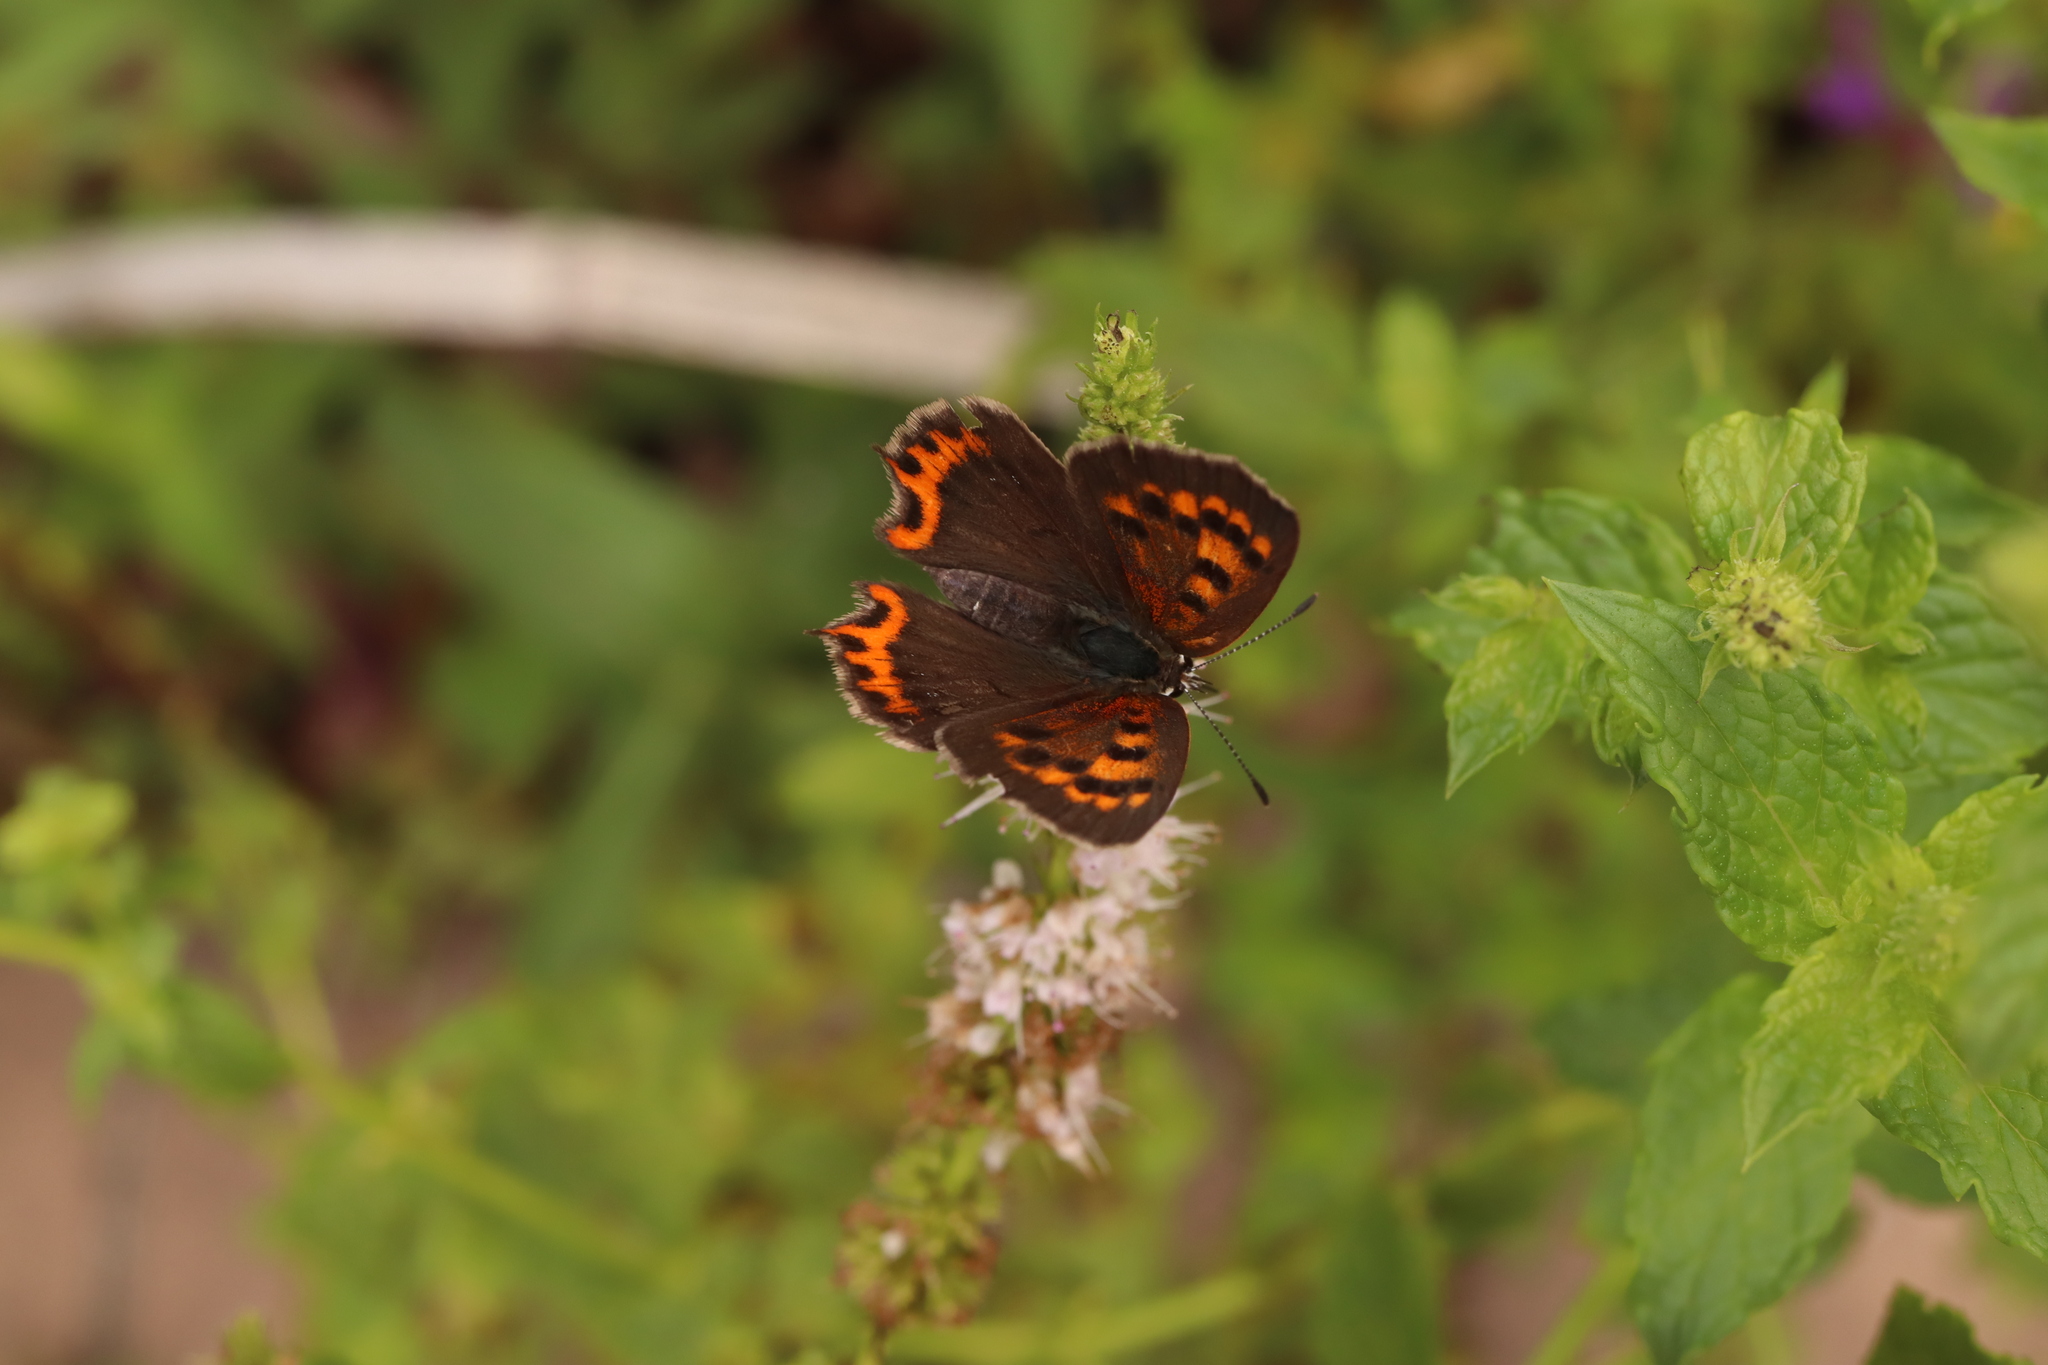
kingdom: Animalia
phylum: Arthropoda
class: Insecta
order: Lepidoptera
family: Lycaenidae
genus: Lycaena
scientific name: Lycaena phlaeas
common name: Small copper
